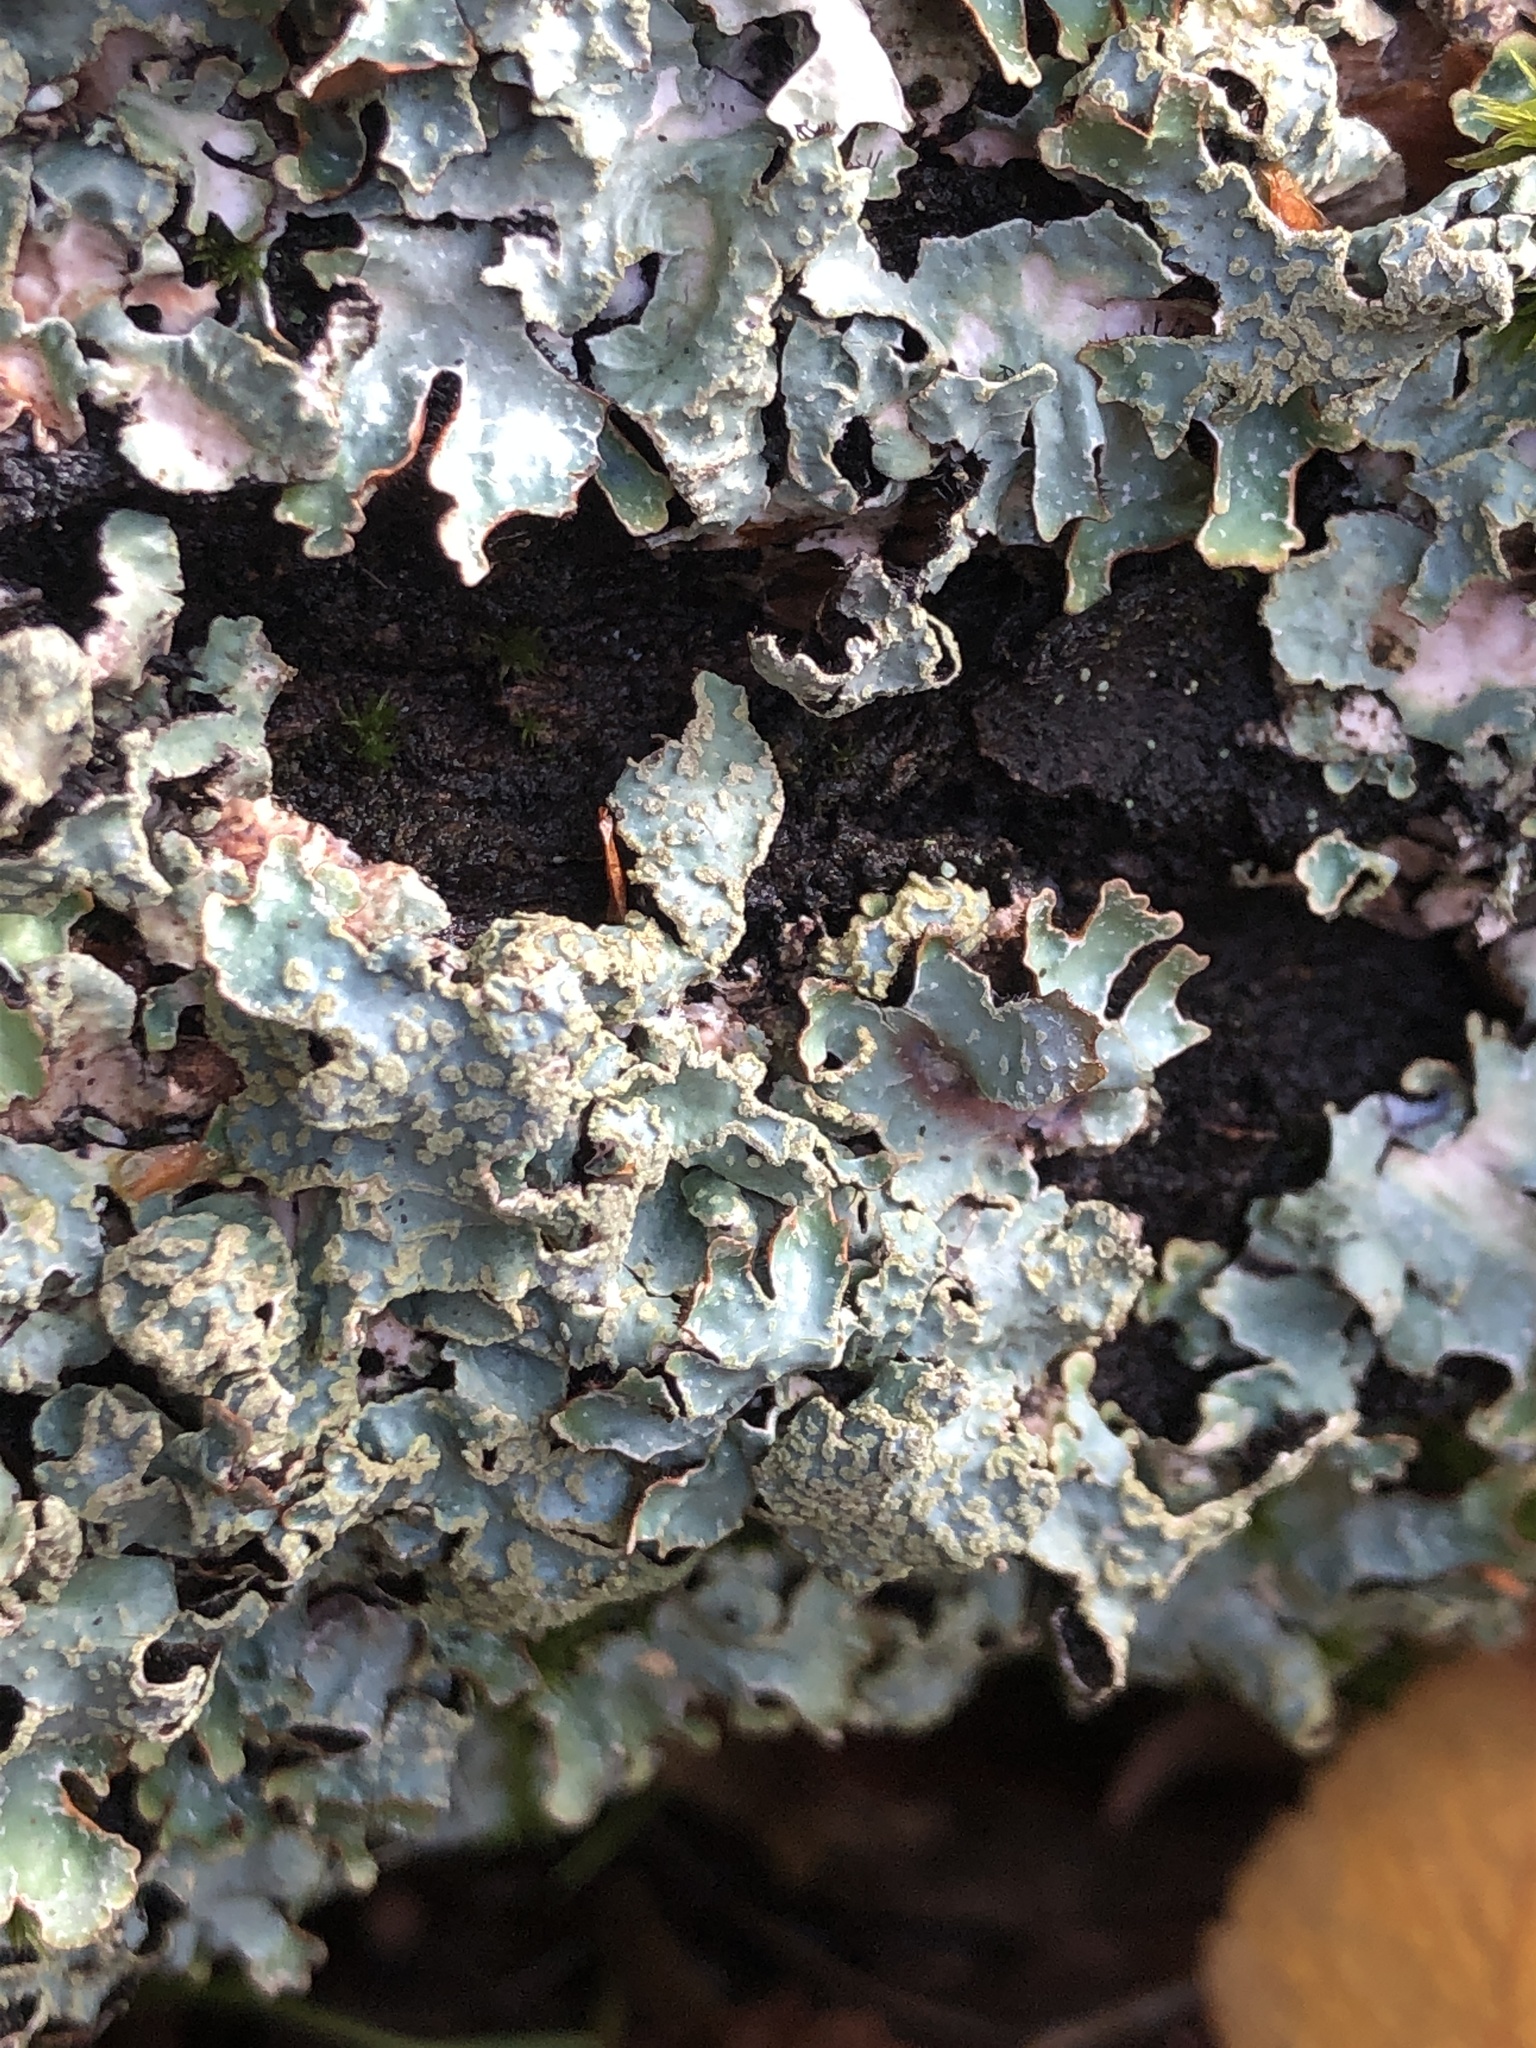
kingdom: Fungi
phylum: Ascomycota
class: Lecanoromycetes
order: Lecanorales
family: Parmeliaceae
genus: Parmelia
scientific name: Parmelia sulcata
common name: Netted shield lichen
